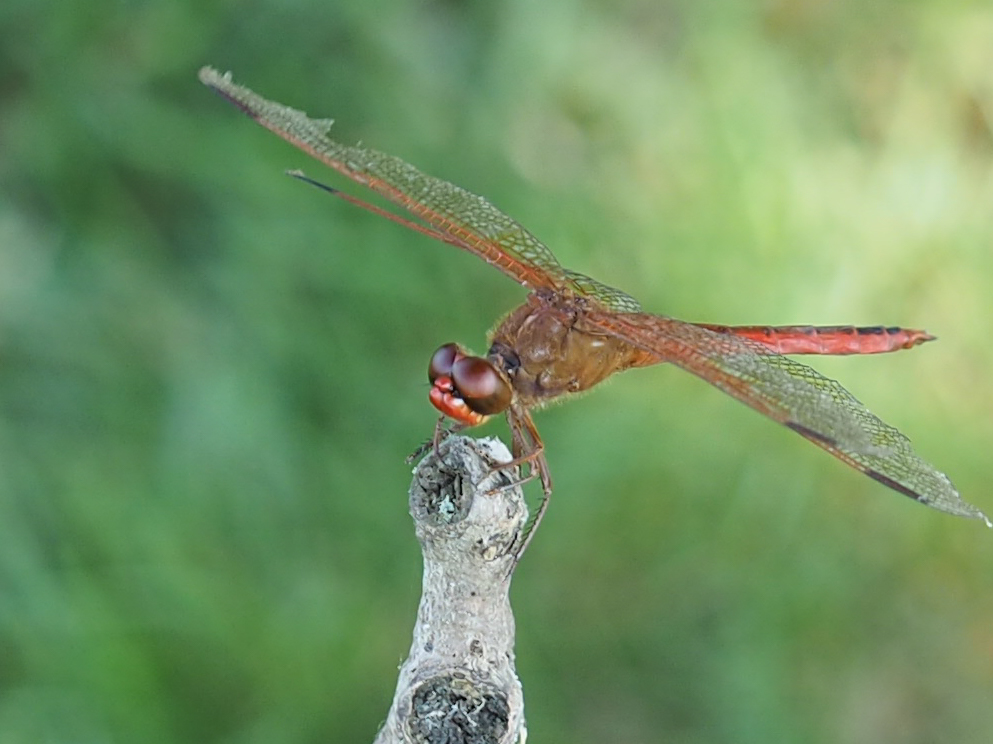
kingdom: Animalia
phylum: Arthropoda
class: Insecta
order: Odonata
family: Libellulidae
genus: Libellula
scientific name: Libellula needhami
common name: Needham's skimmer
